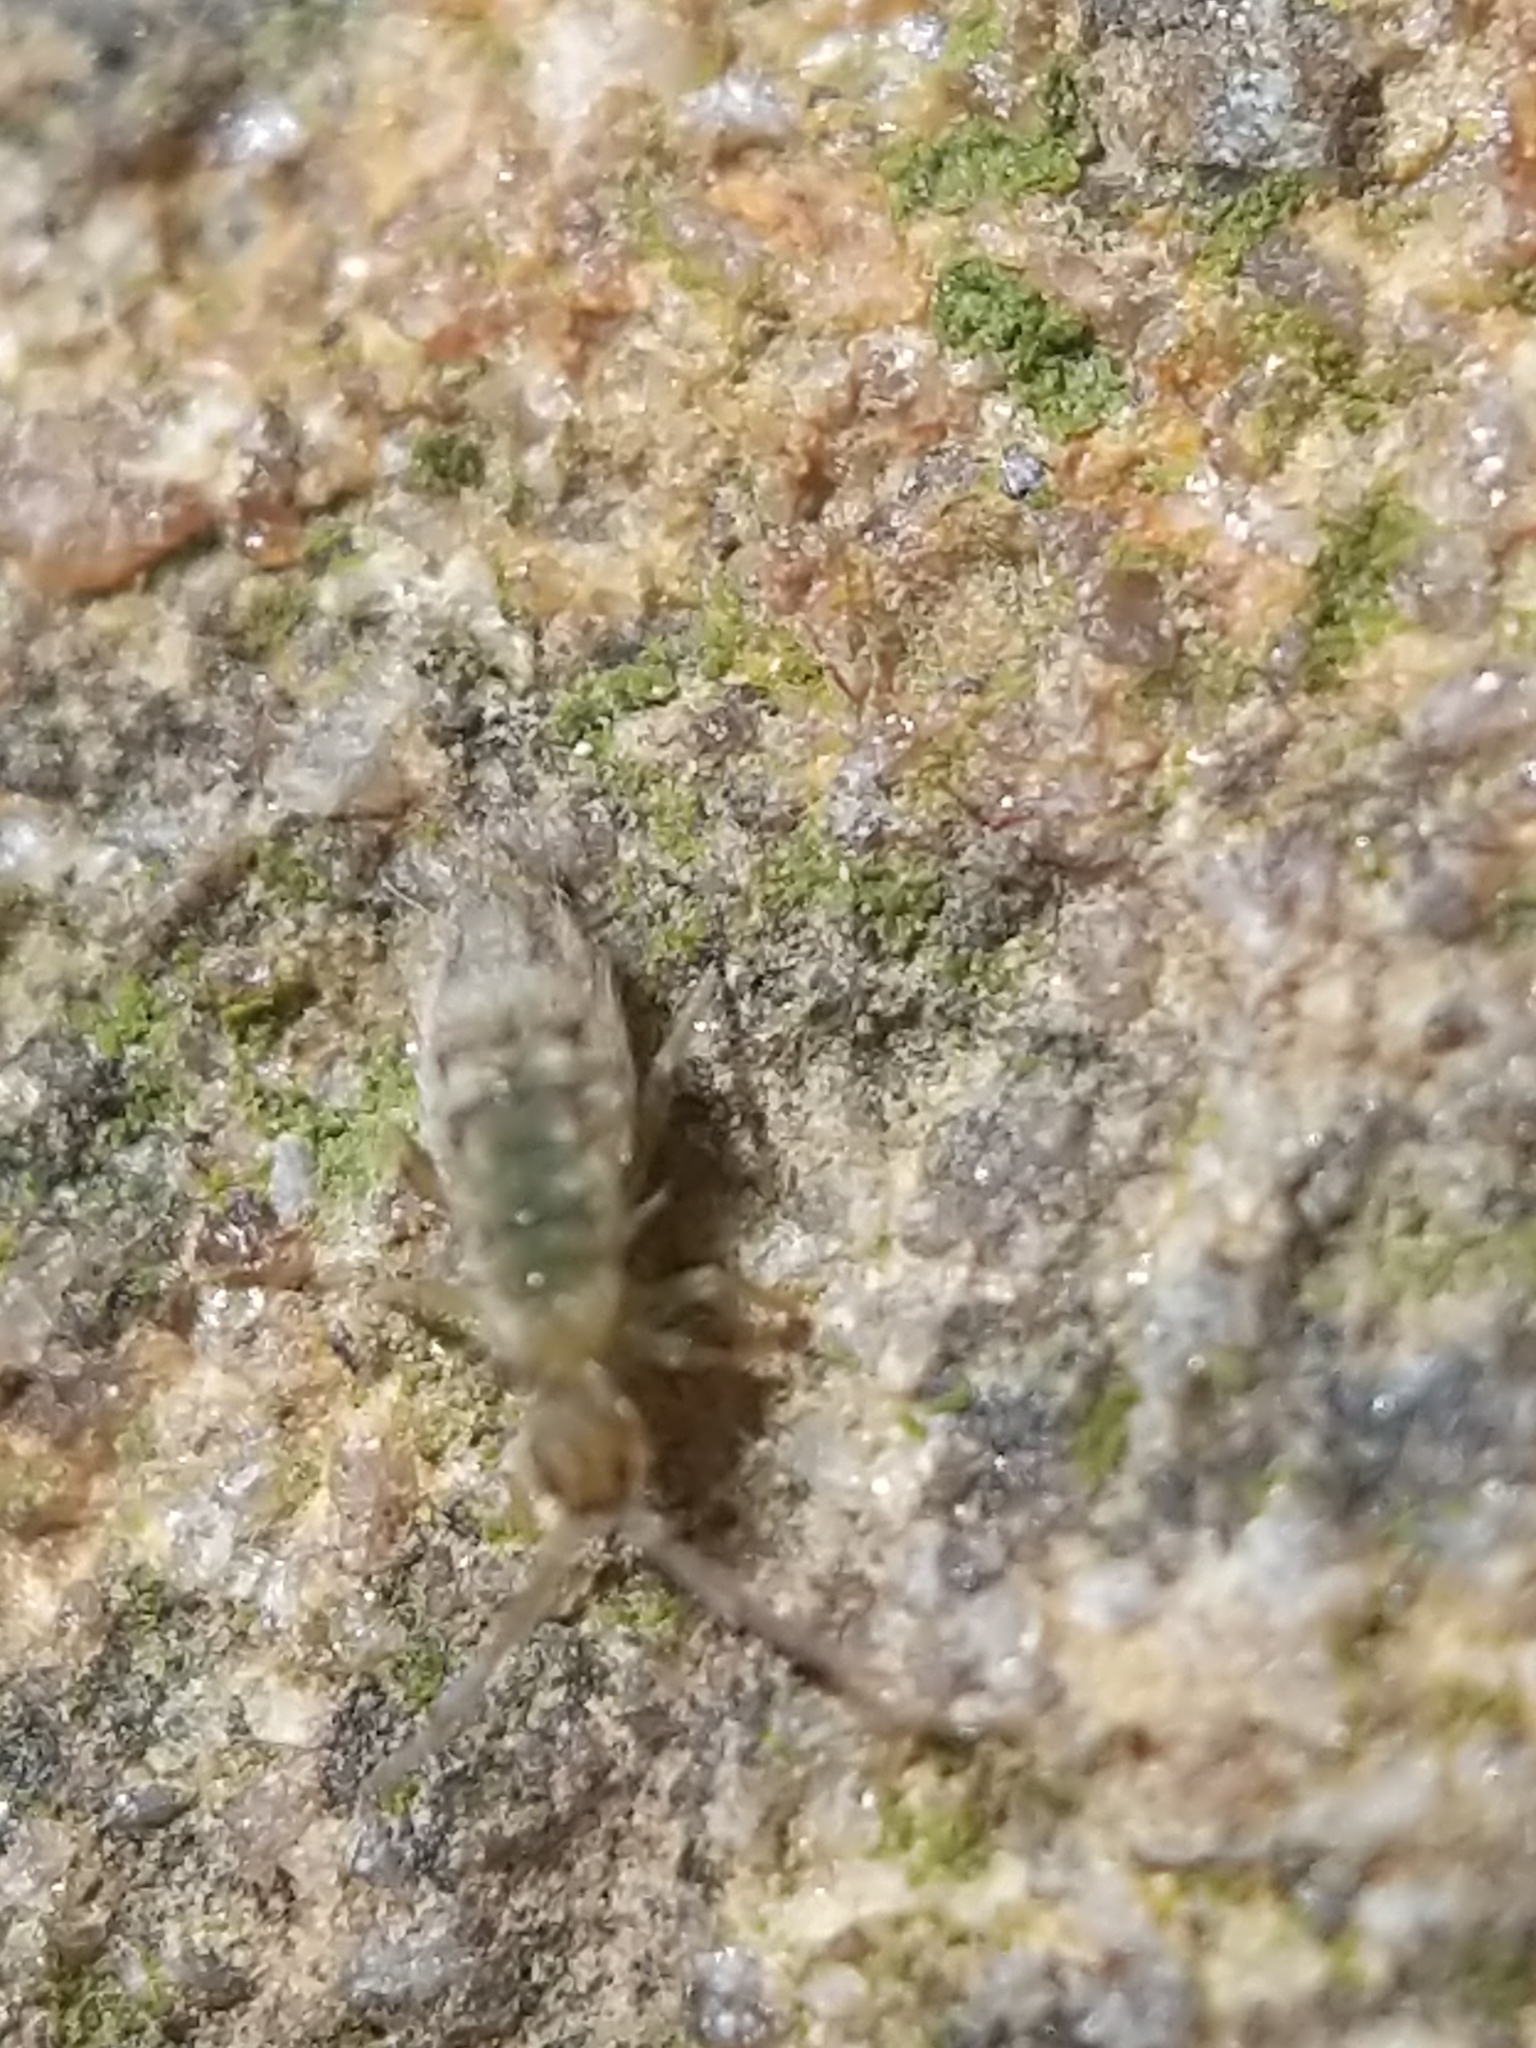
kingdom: Animalia
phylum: Arthropoda
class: Collembola
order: Entomobryomorpha
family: Entomobryidae
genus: Entomobrya
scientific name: Entomobrya nivalis
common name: Cosmopolitan springtail
